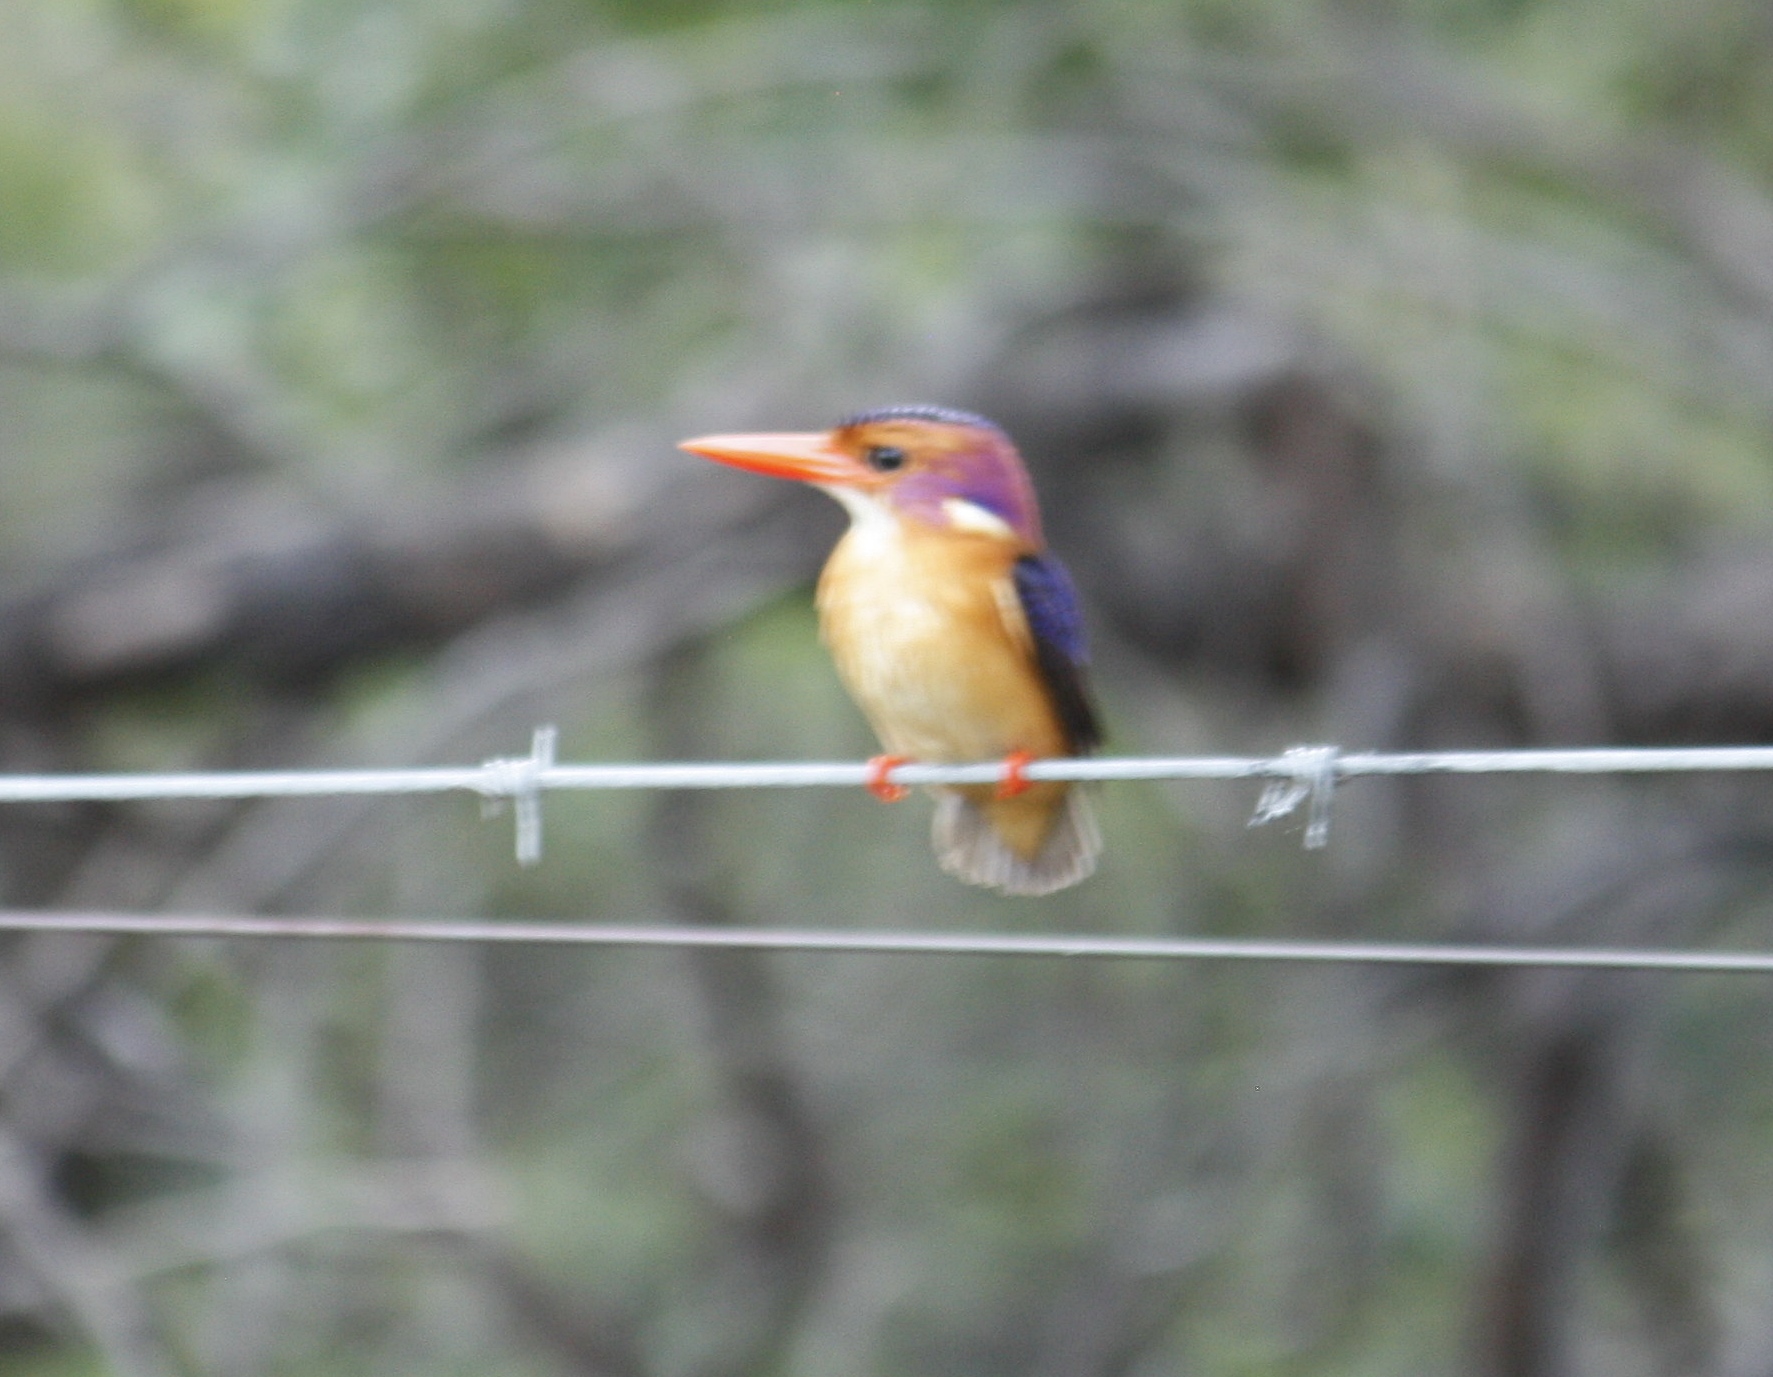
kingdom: Animalia
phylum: Chordata
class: Aves
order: Coraciiformes
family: Alcedinidae
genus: Ispidina
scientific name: Ispidina picta
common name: African pygmy-kingfisher
